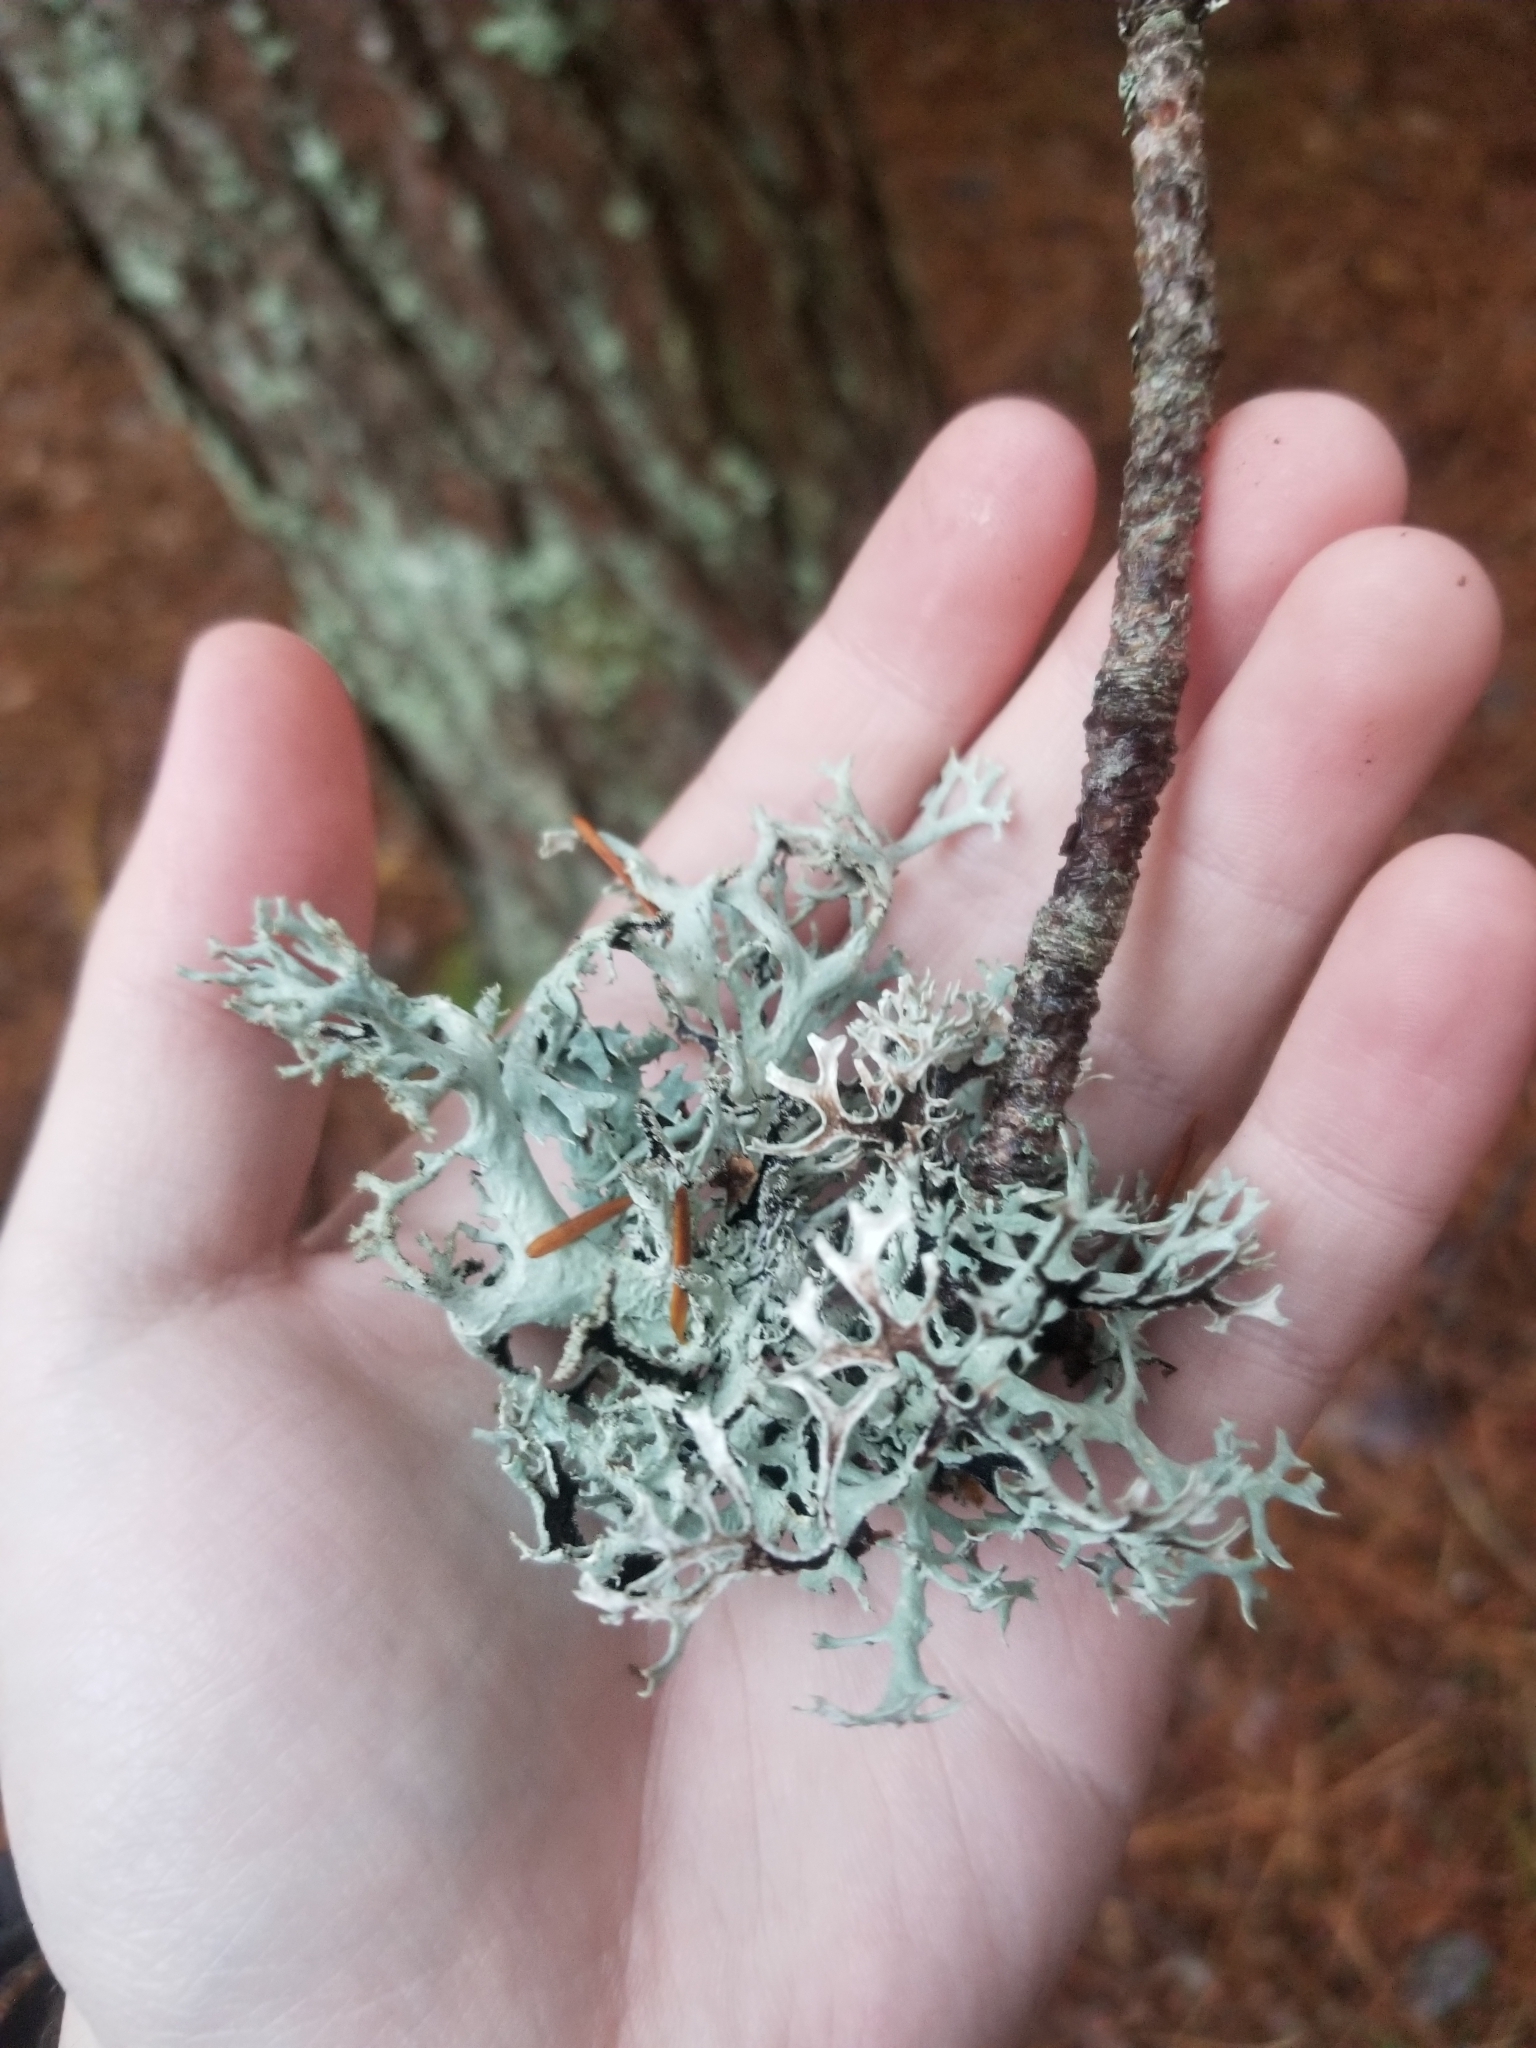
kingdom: Fungi
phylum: Ascomycota
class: Lecanoromycetes
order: Lecanorales
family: Parmeliaceae
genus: Pseudevernia
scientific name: Pseudevernia consocians
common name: Common antler lichen
